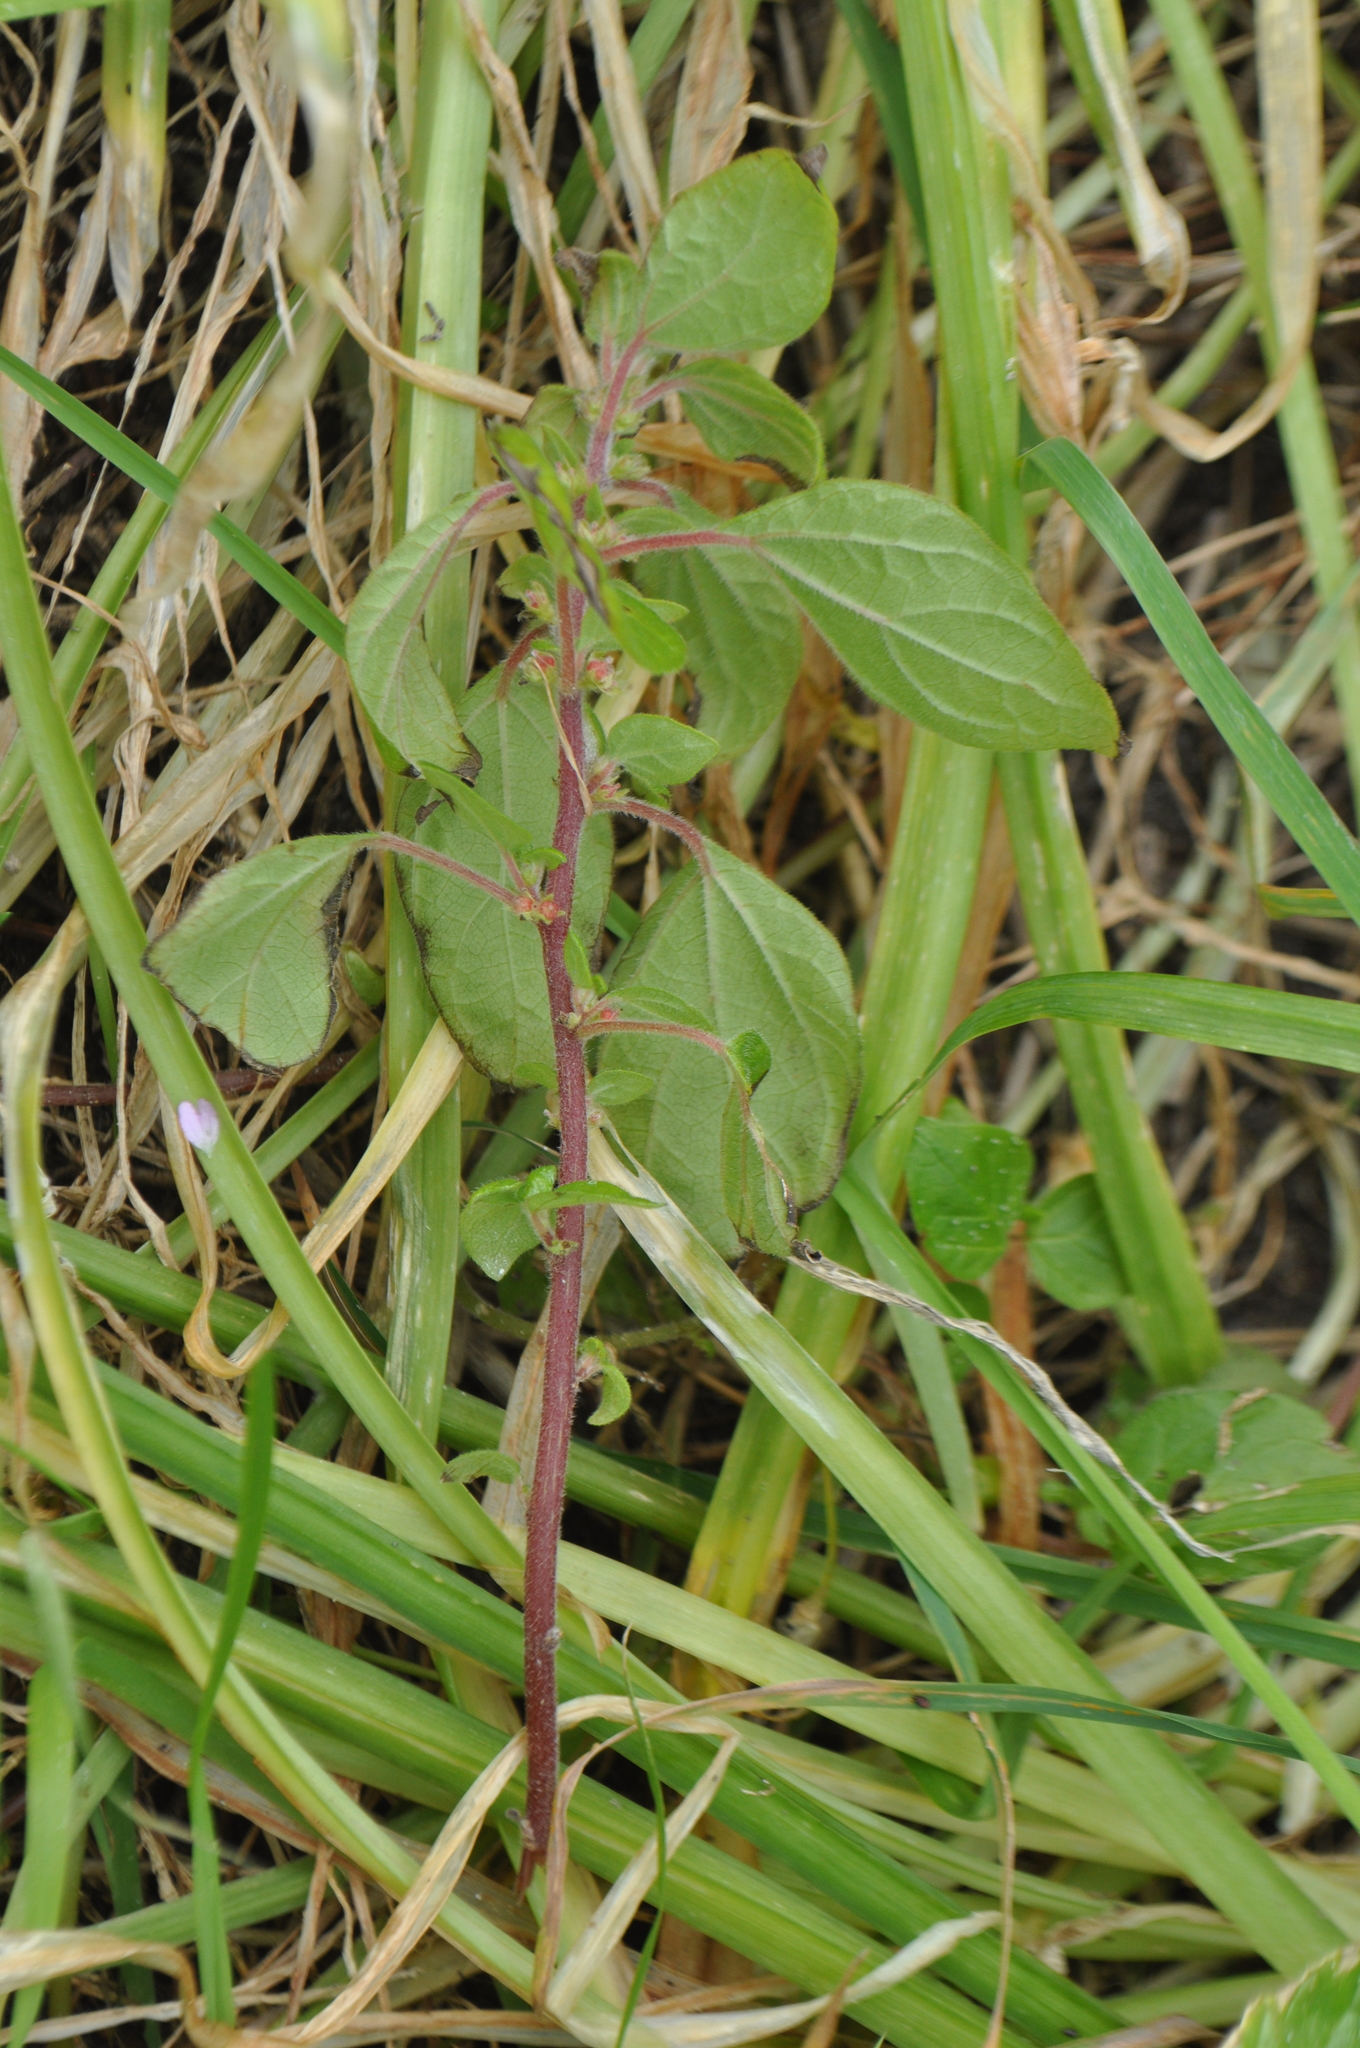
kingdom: Plantae
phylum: Tracheophyta
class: Magnoliopsida
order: Rosales
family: Urticaceae
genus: Parietaria
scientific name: Parietaria judaica
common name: Pellitory-of-the-wall
